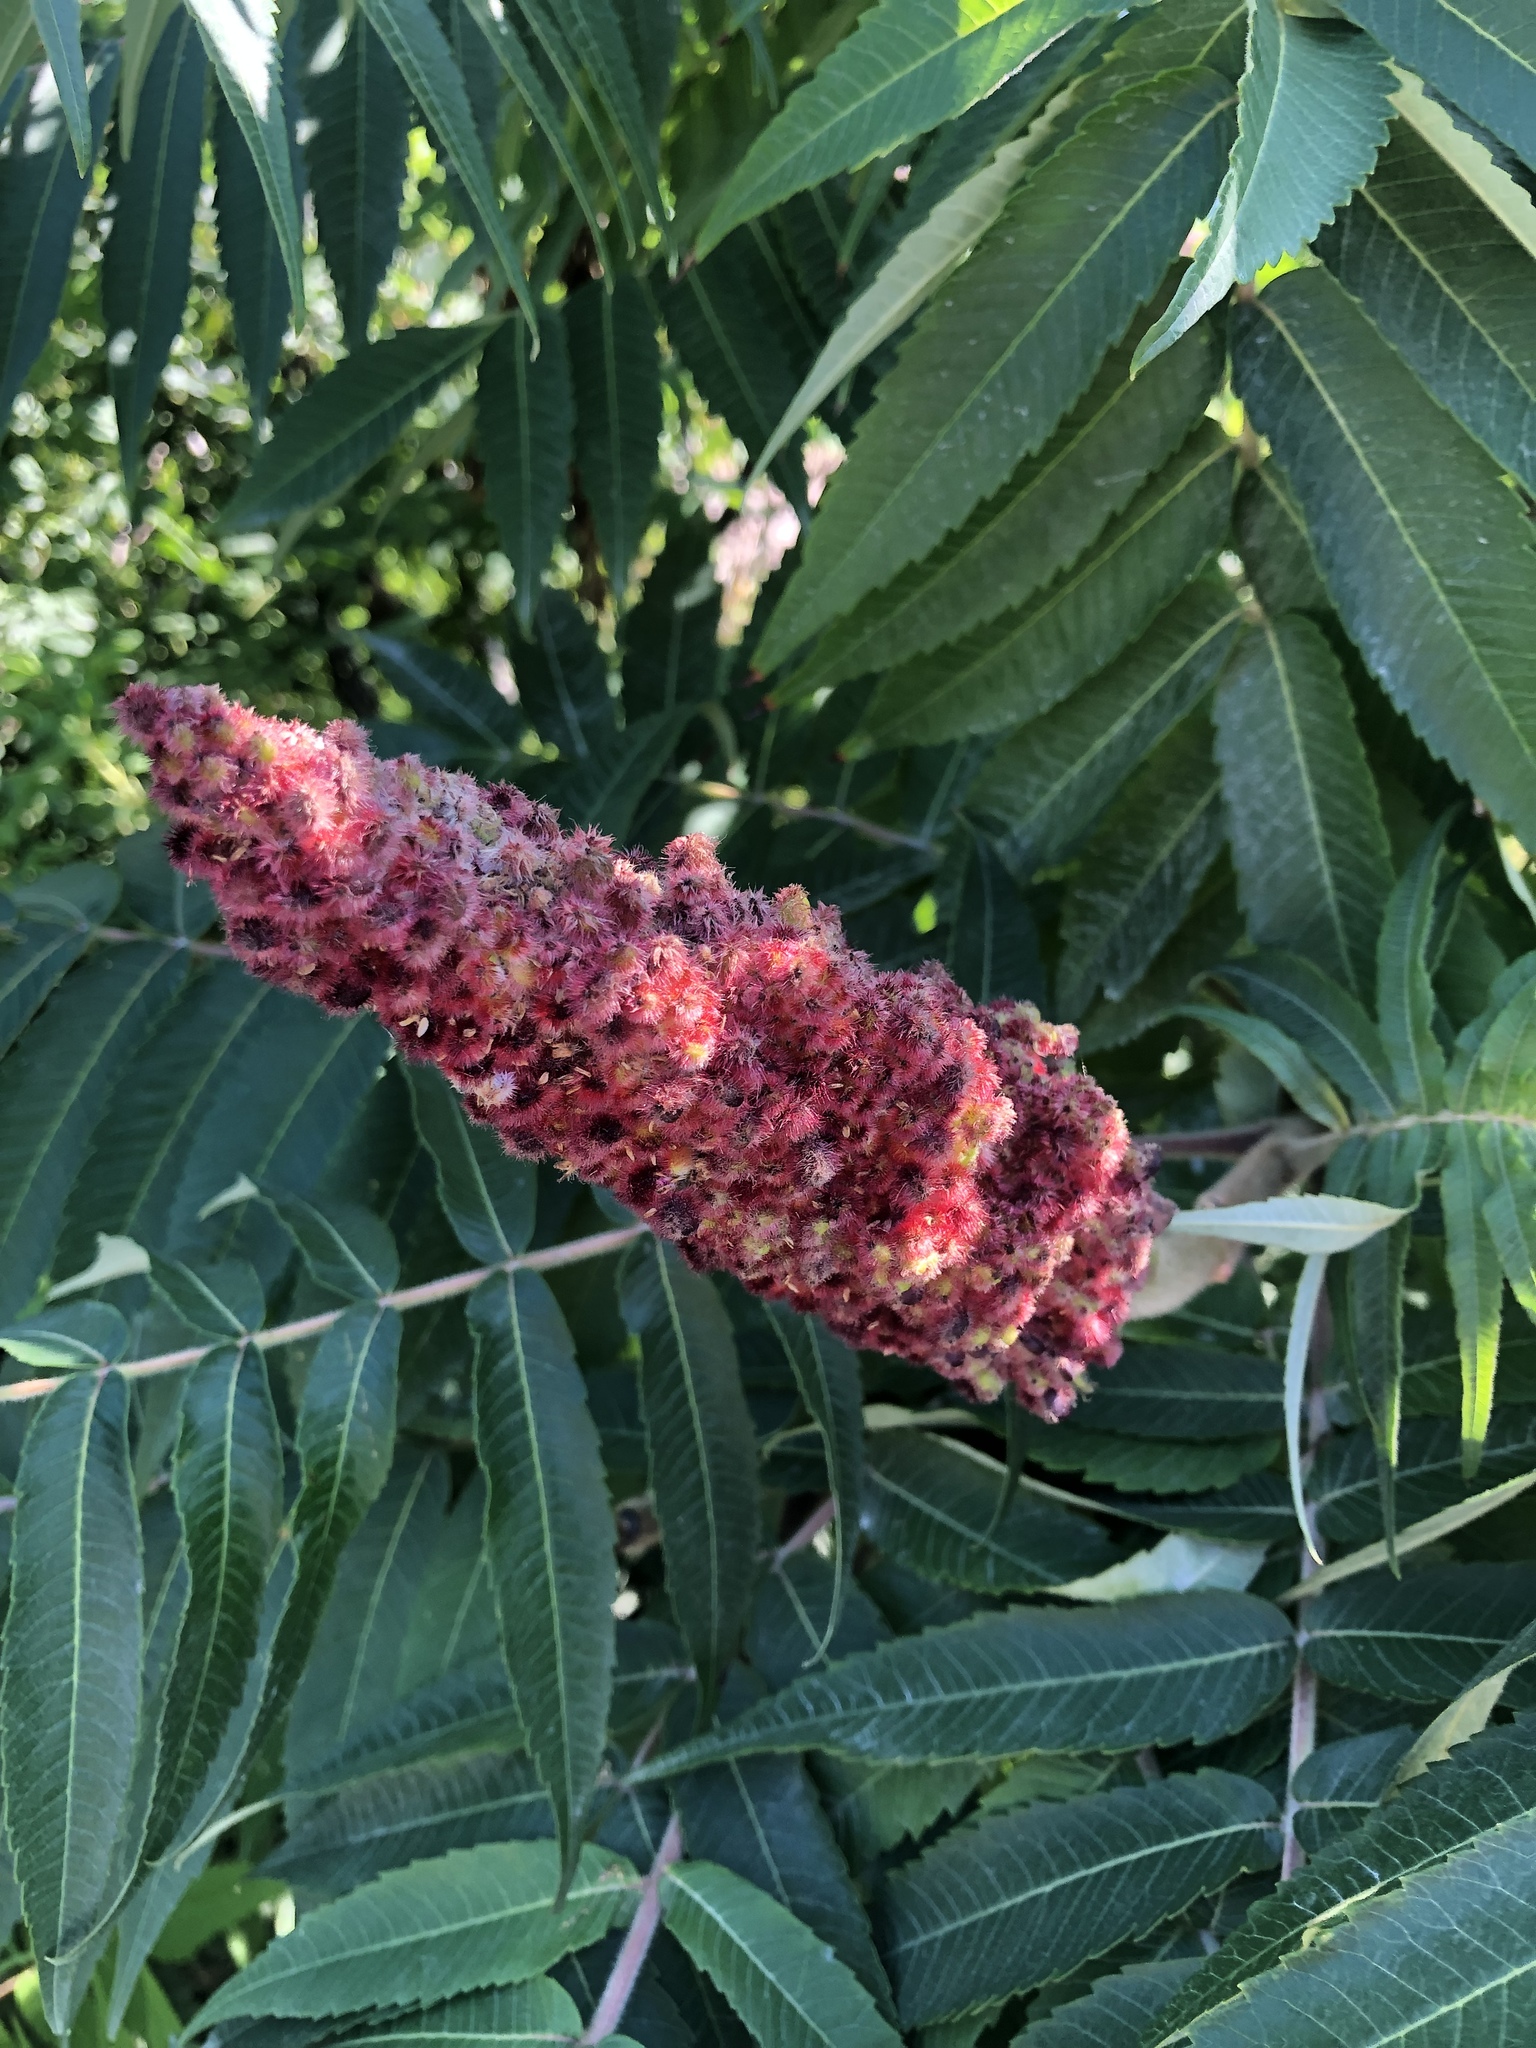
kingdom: Plantae
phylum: Tracheophyta
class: Magnoliopsida
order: Sapindales
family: Anacardiaceae
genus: Rhus
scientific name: Rhus typhina
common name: Staghorn sumac
